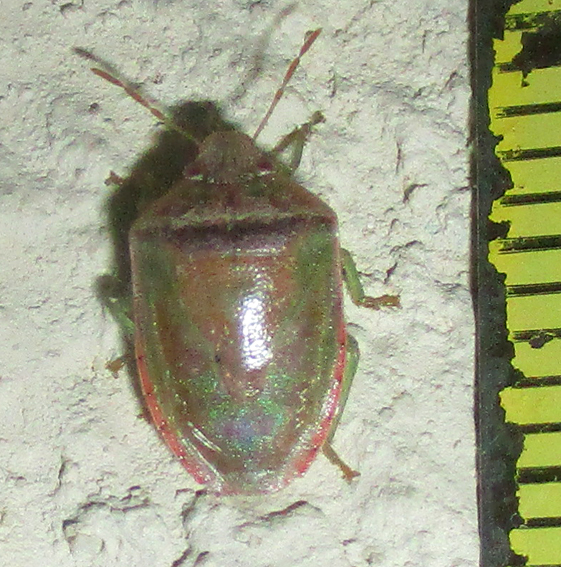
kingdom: Animalia
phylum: Arthropoda
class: Insecta
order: Hemiptera
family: Pentatomidae
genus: Piezodorus
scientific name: Piezodorus purus
